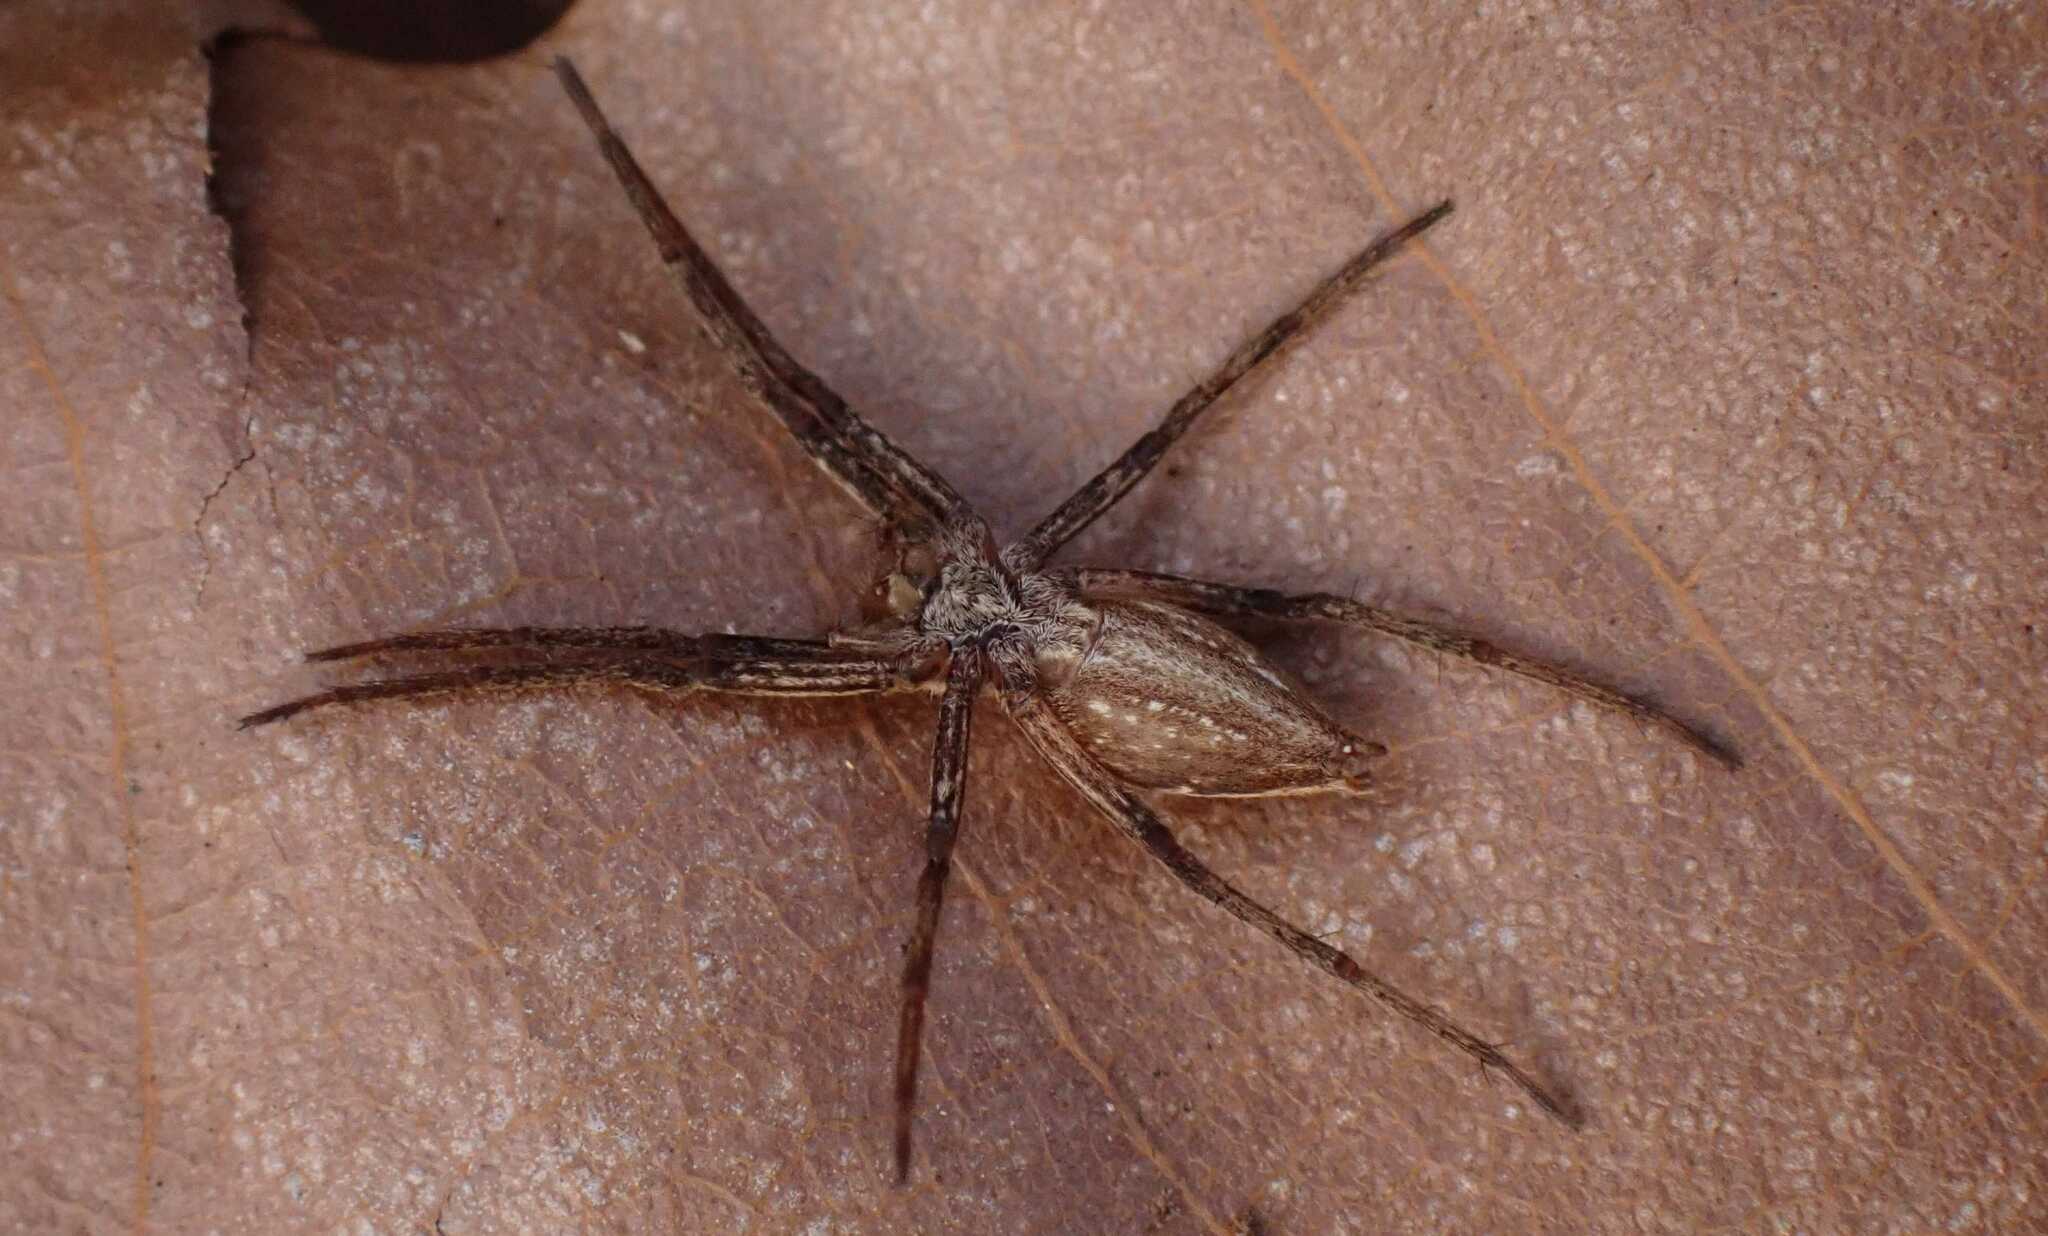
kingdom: Animalia
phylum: Arthropoda
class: Arachnida
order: Araneae
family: Pisauridae
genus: Pisaura
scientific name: Pisaura mirabilis
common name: Tent spider
